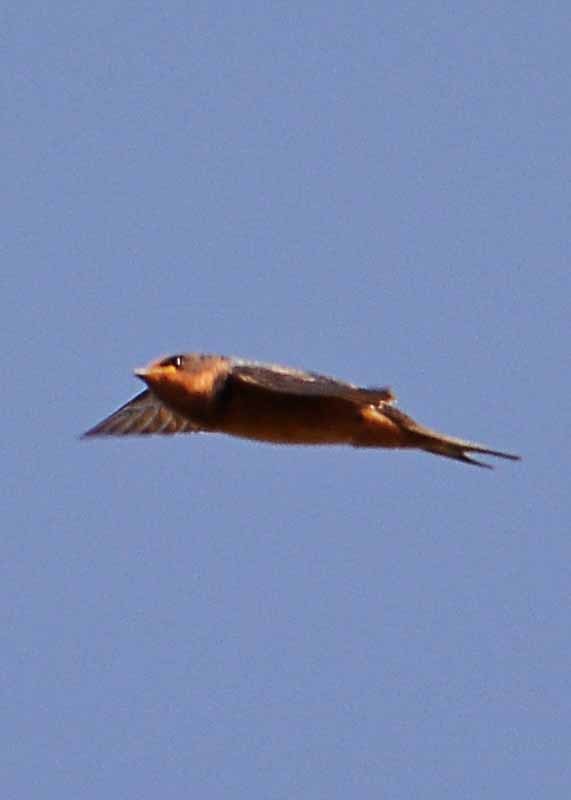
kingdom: Animalia
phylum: Chordata
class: Aves
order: Passeriformes
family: Hirundinidae
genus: Hirundo
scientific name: Hirundo rustica
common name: Barn swallow
